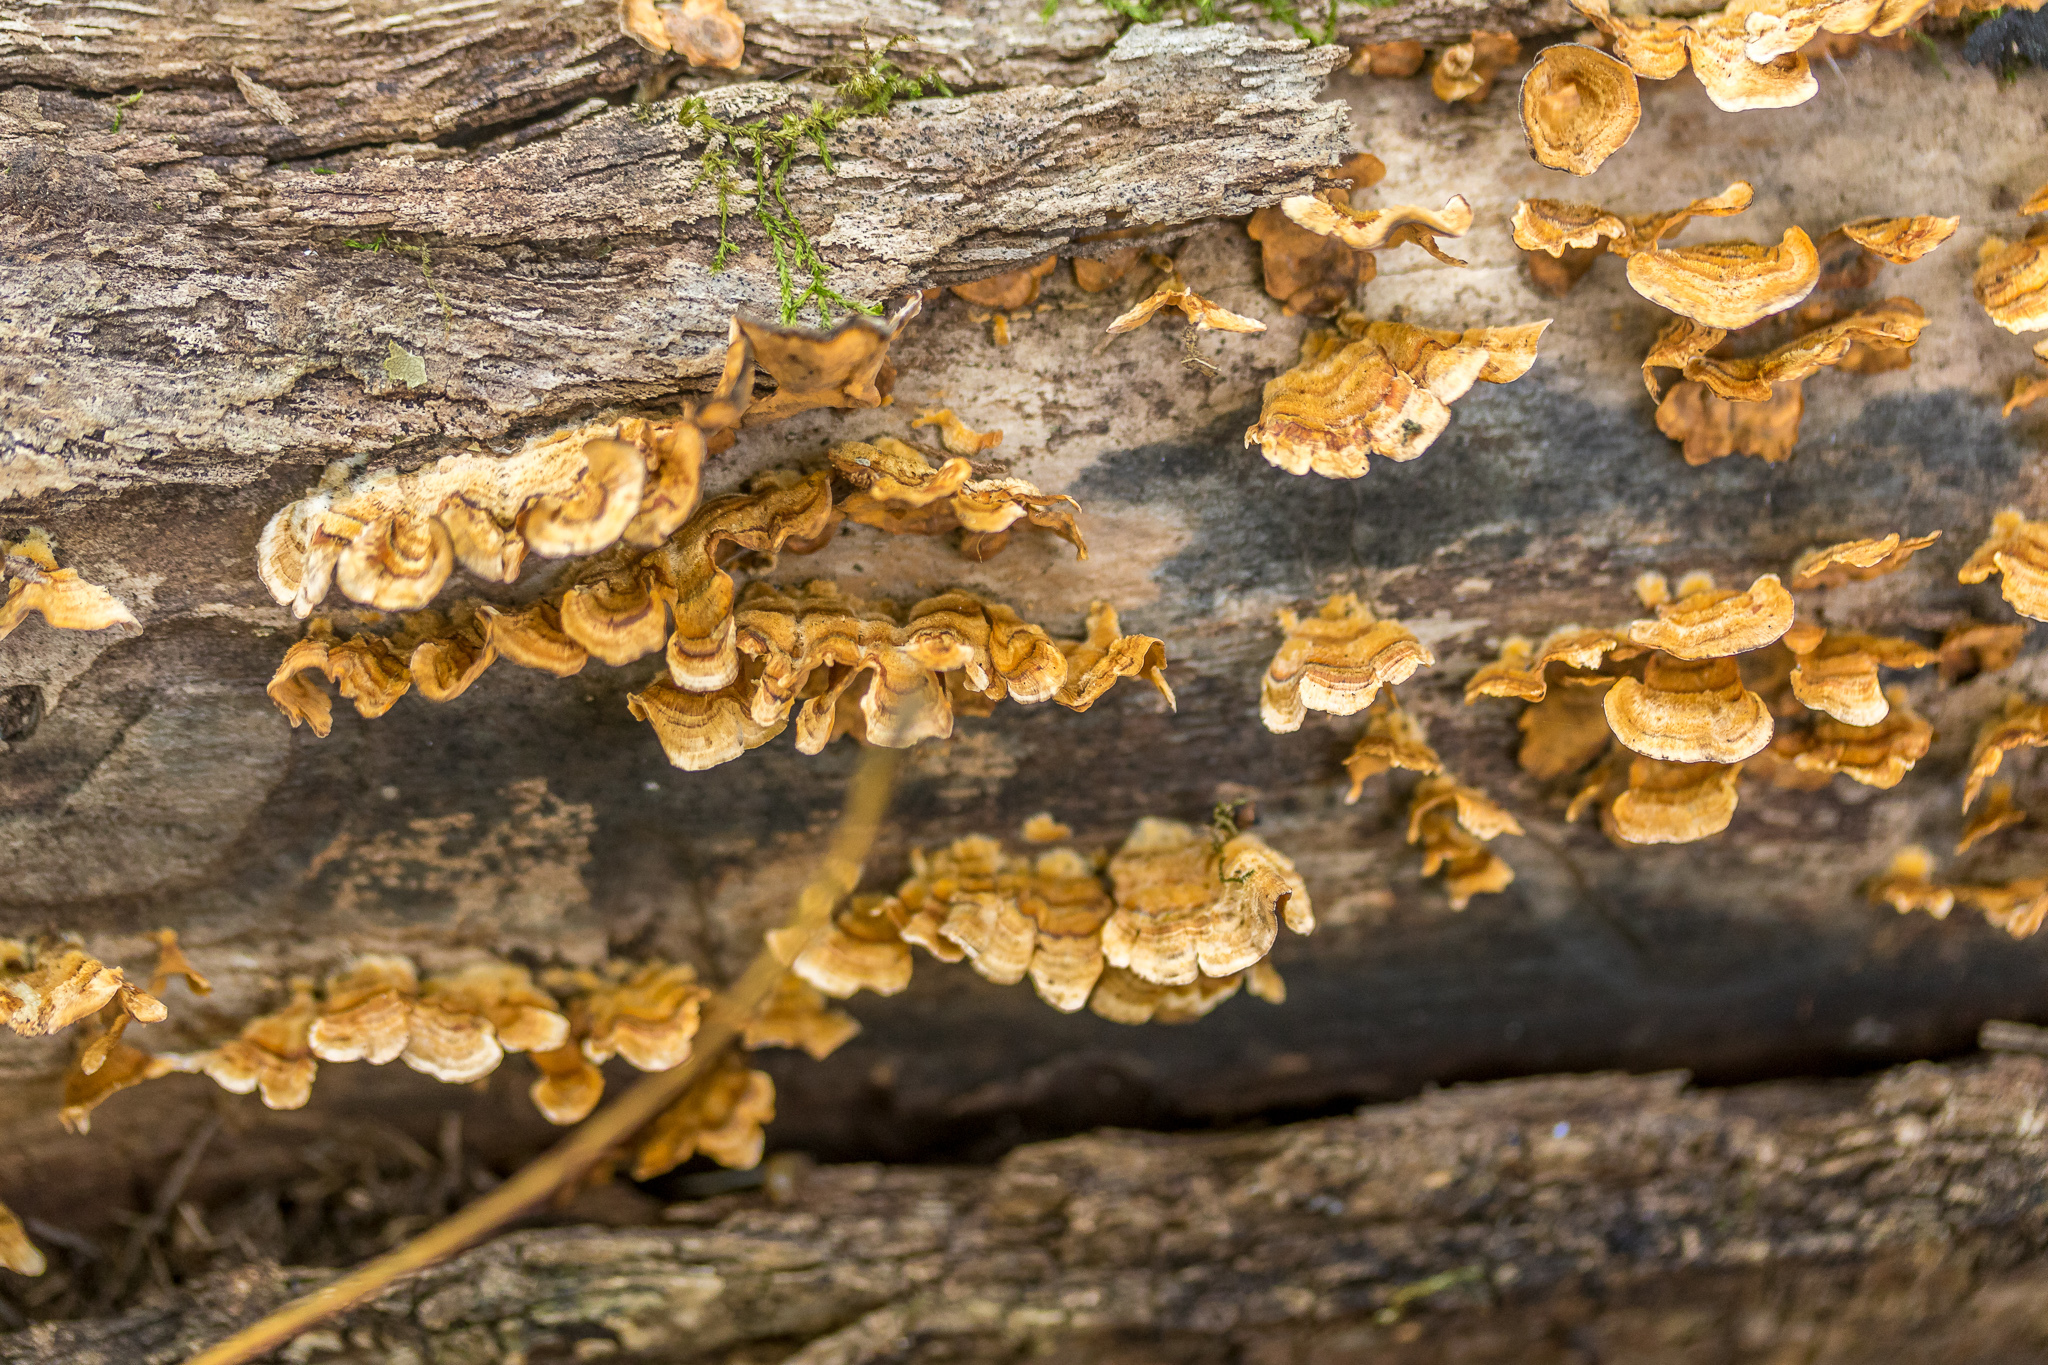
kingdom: Fungi
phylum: Basidiomycota
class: Agaricomycetes
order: Russulales
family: Stereaceae
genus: Stereum
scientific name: Stereum complicatum
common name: Crowded parchment
